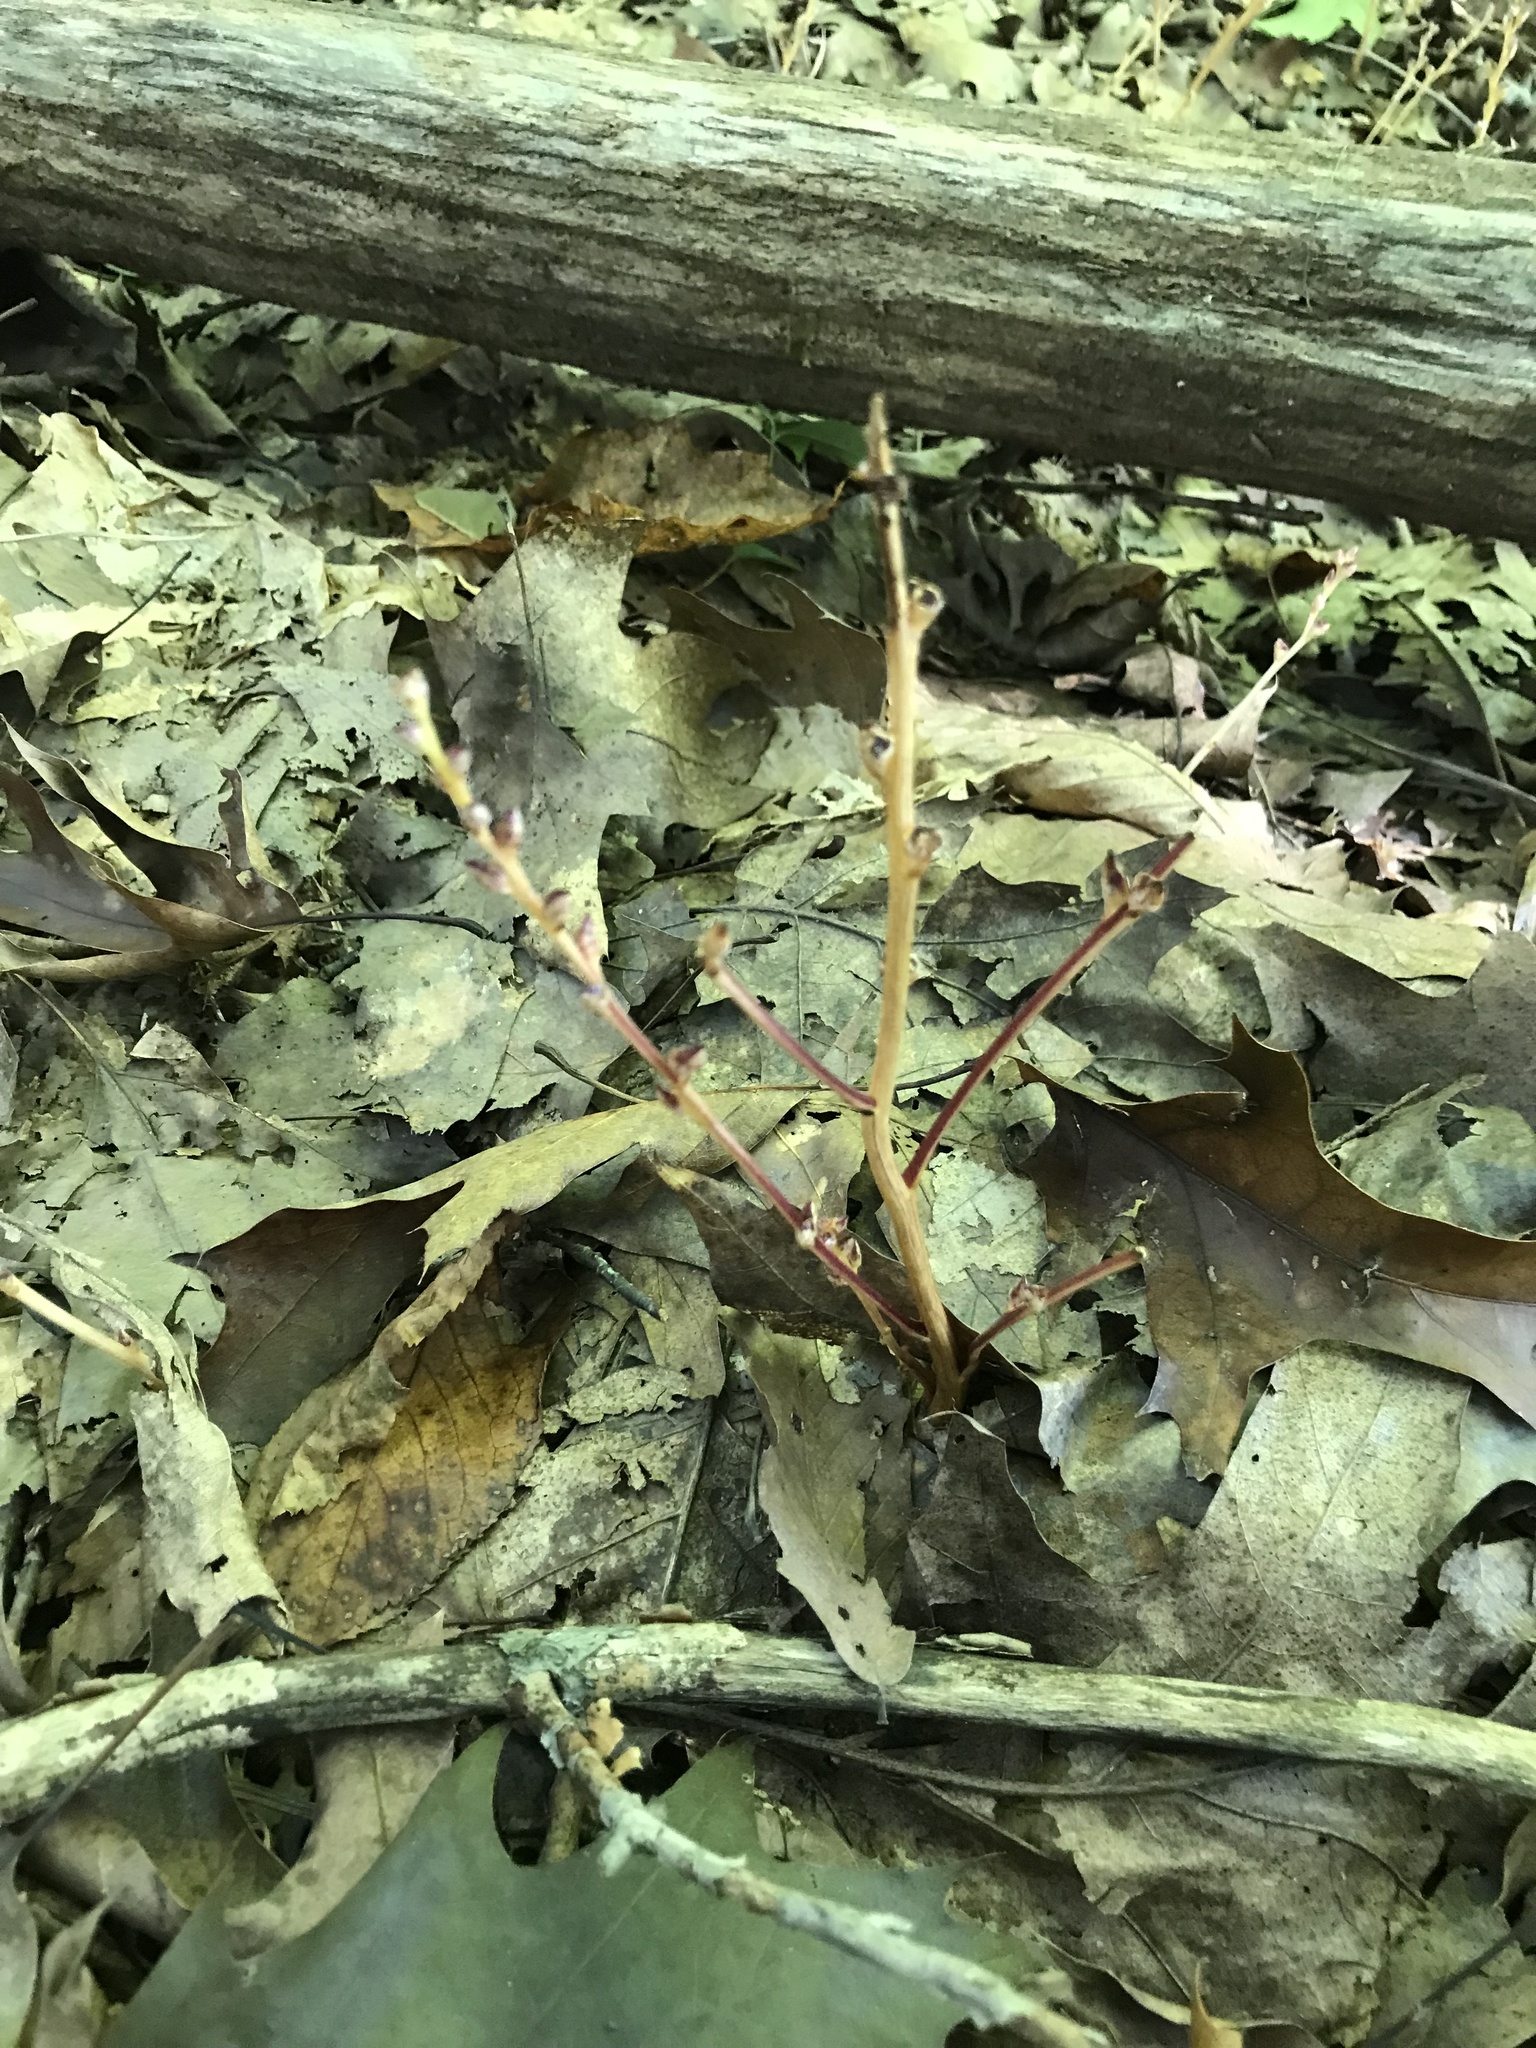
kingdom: Plantae
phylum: Tracheophyta
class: Magnoliopsida
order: Lamiales
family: Orobanchaceae
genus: Epifagus
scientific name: Epifagus virginiana
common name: Beechdrops
